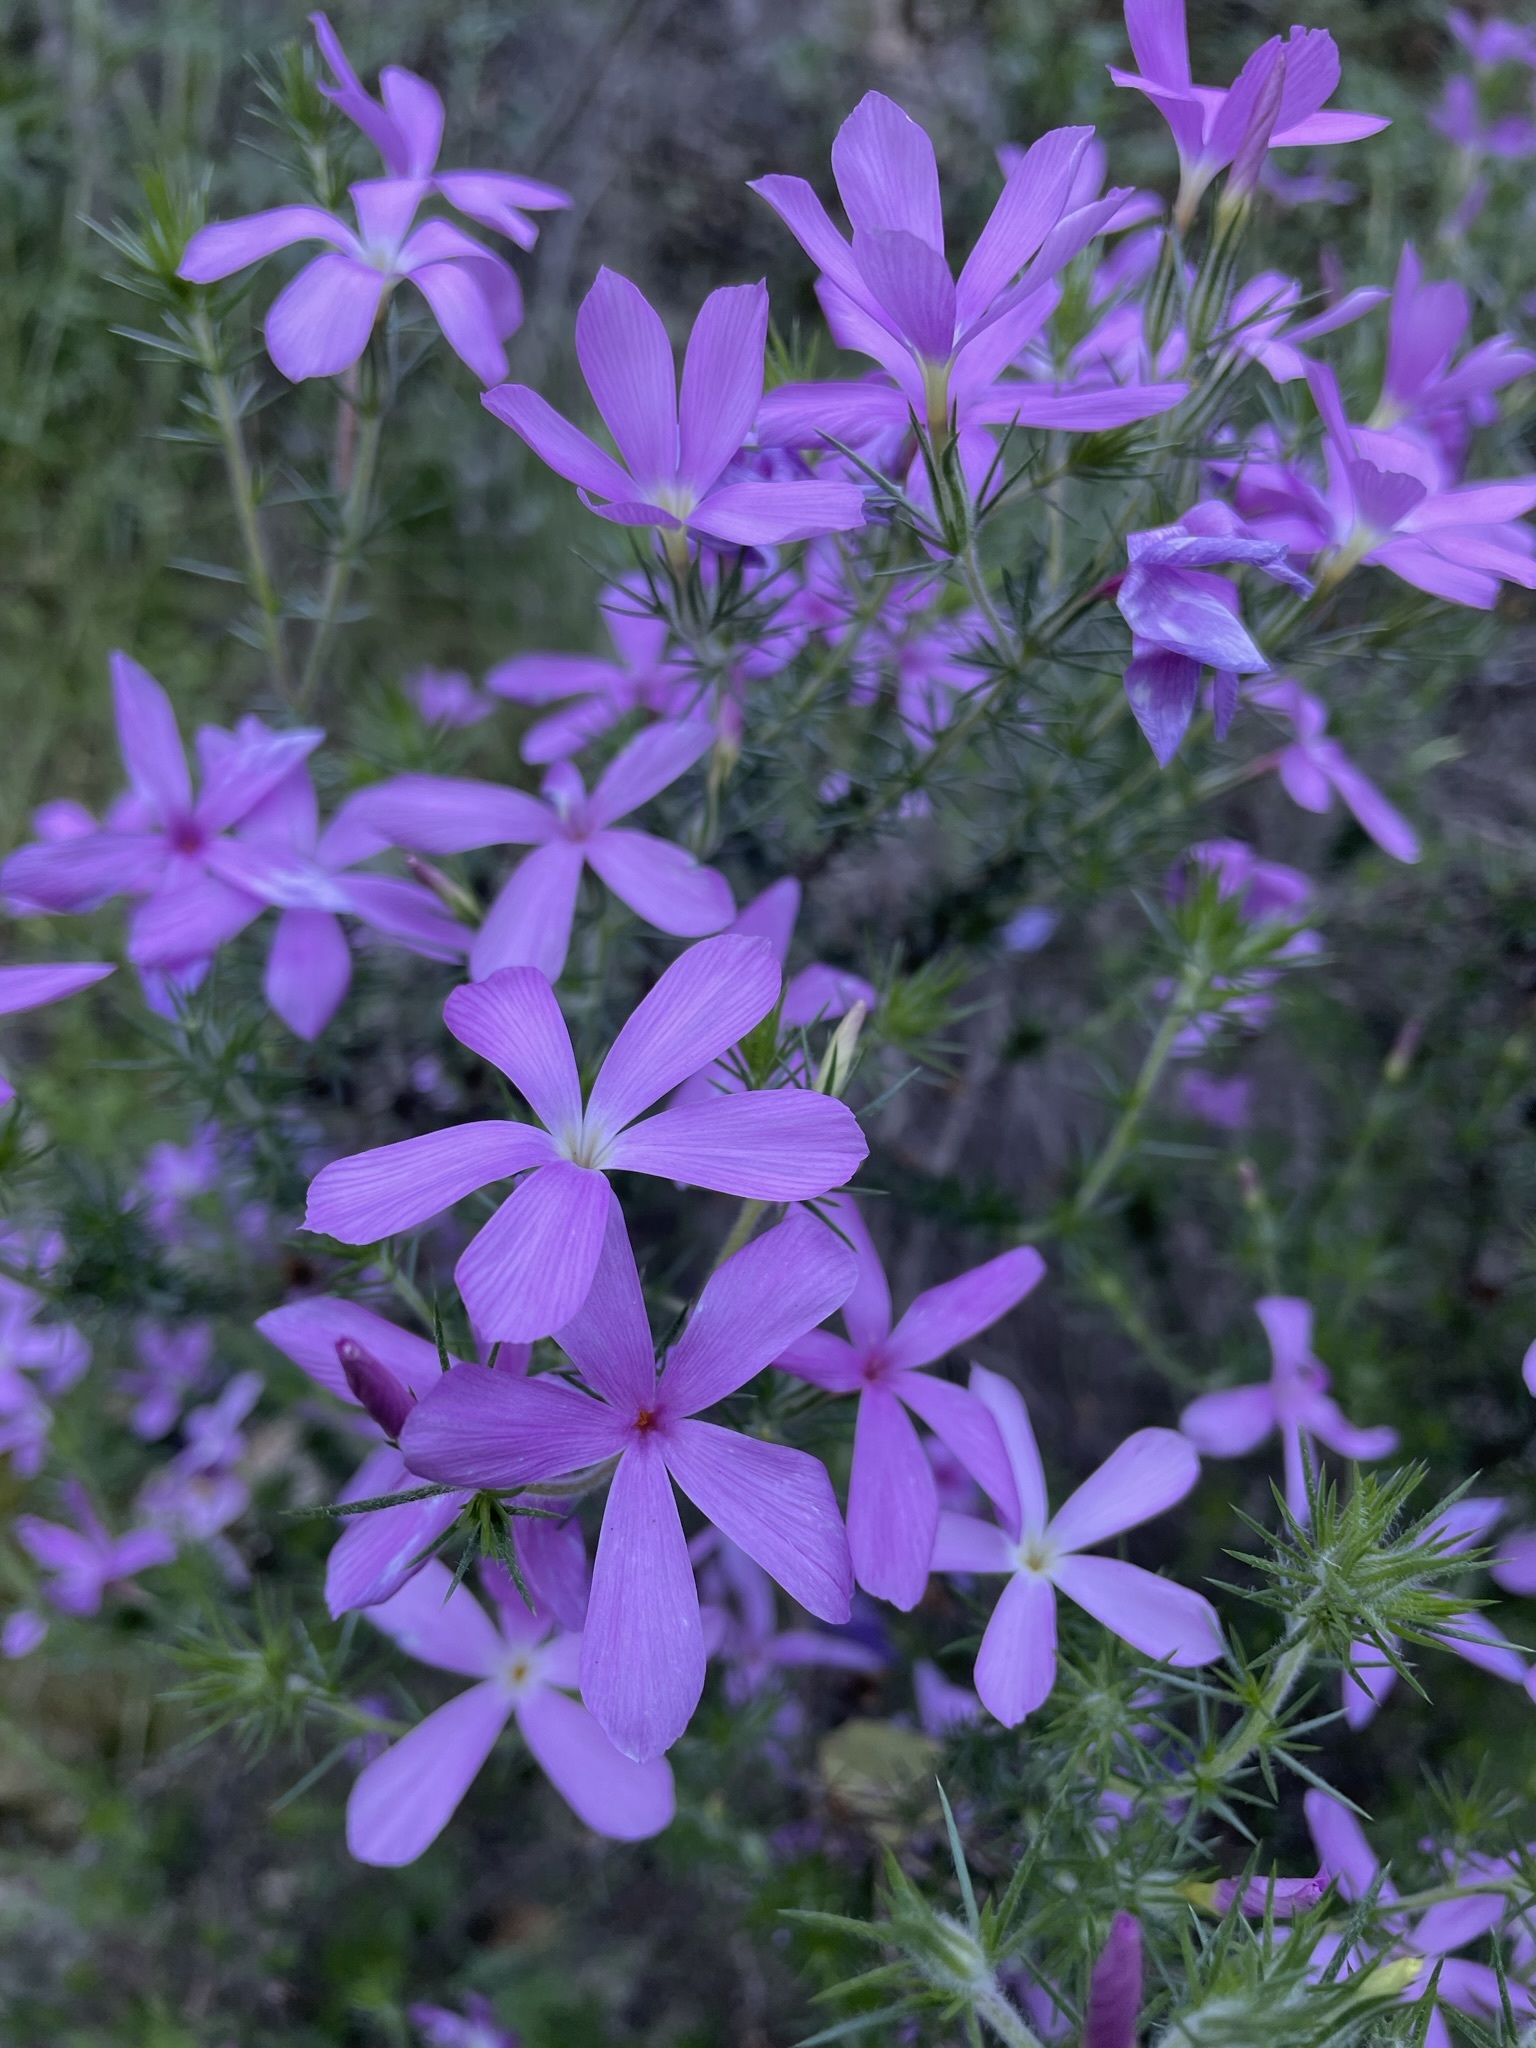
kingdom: Plantae
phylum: Tracheophyta
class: Magnoliopsida
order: Ericales
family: Polemoniaceae
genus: Linanthus
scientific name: Linanthus californicus
